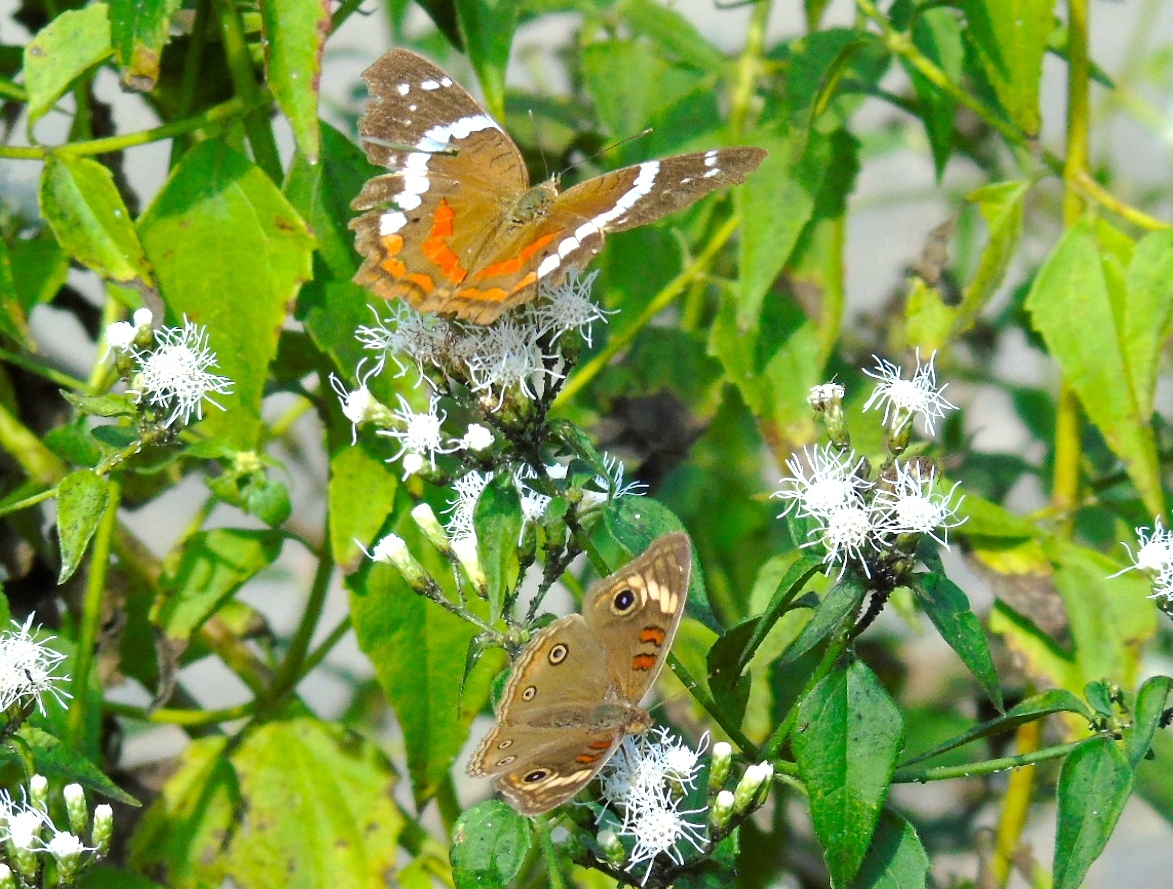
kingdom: Animalia
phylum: Arthropoda
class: Insecta
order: Lepidoptera
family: Nymphalidae
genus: Junonia
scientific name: Junonia
